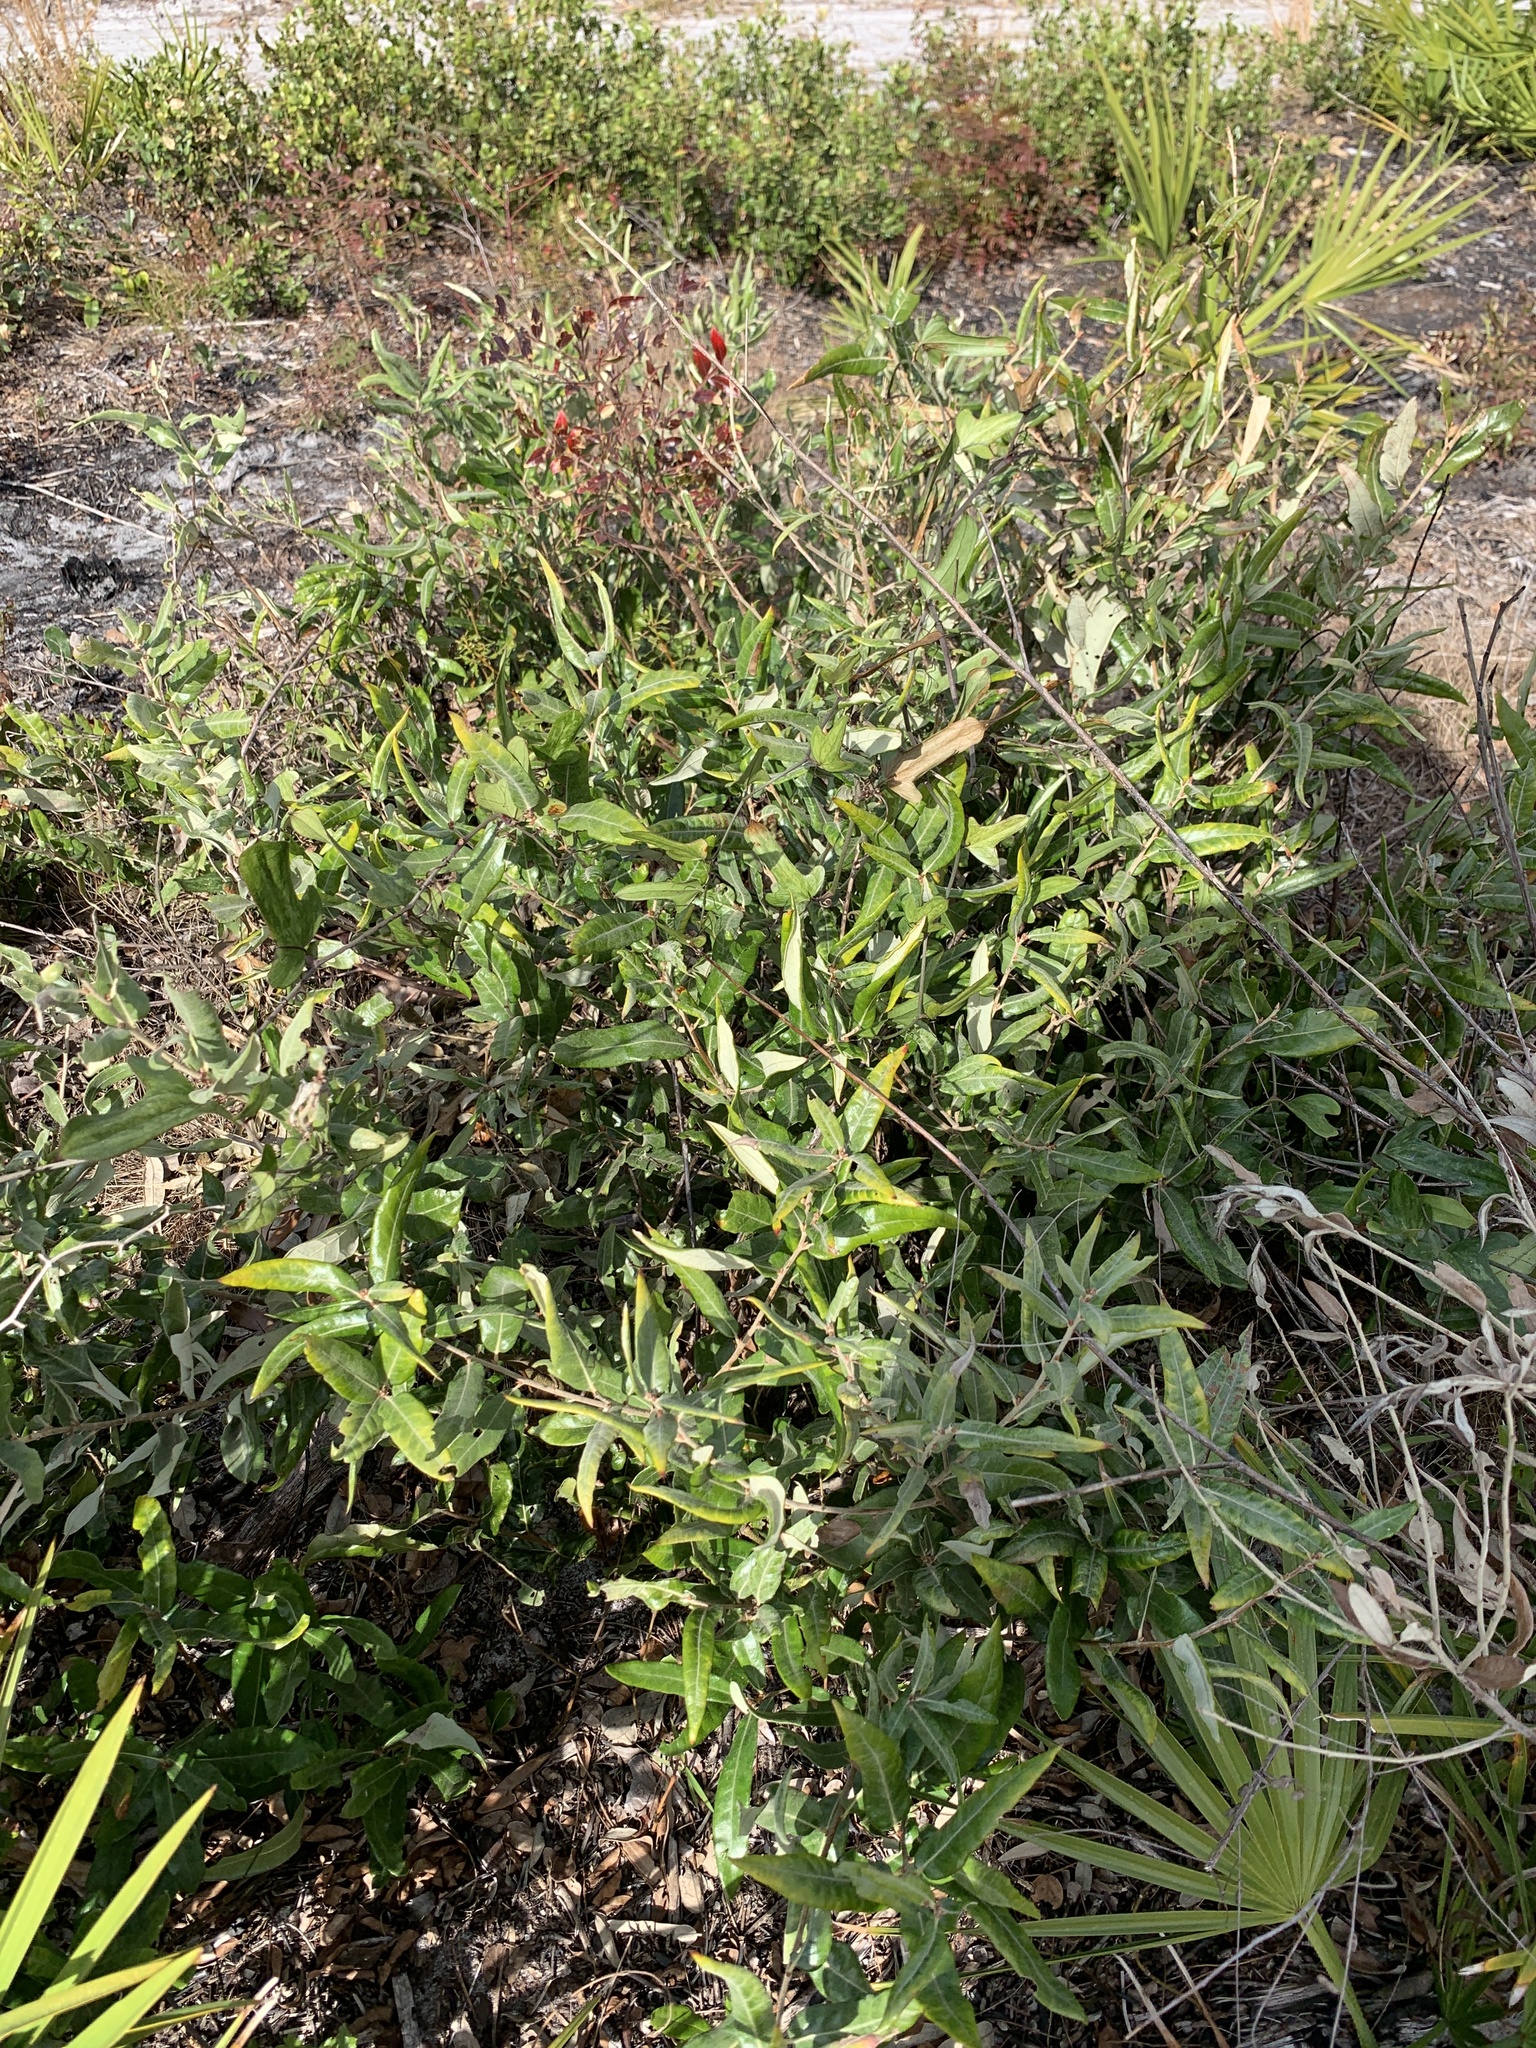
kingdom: Plantae
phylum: Tracheophyta
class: Magnoliopsida
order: Fagales
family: Fagaceae
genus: Quercus
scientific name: Quercus pumila
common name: Runner oak
